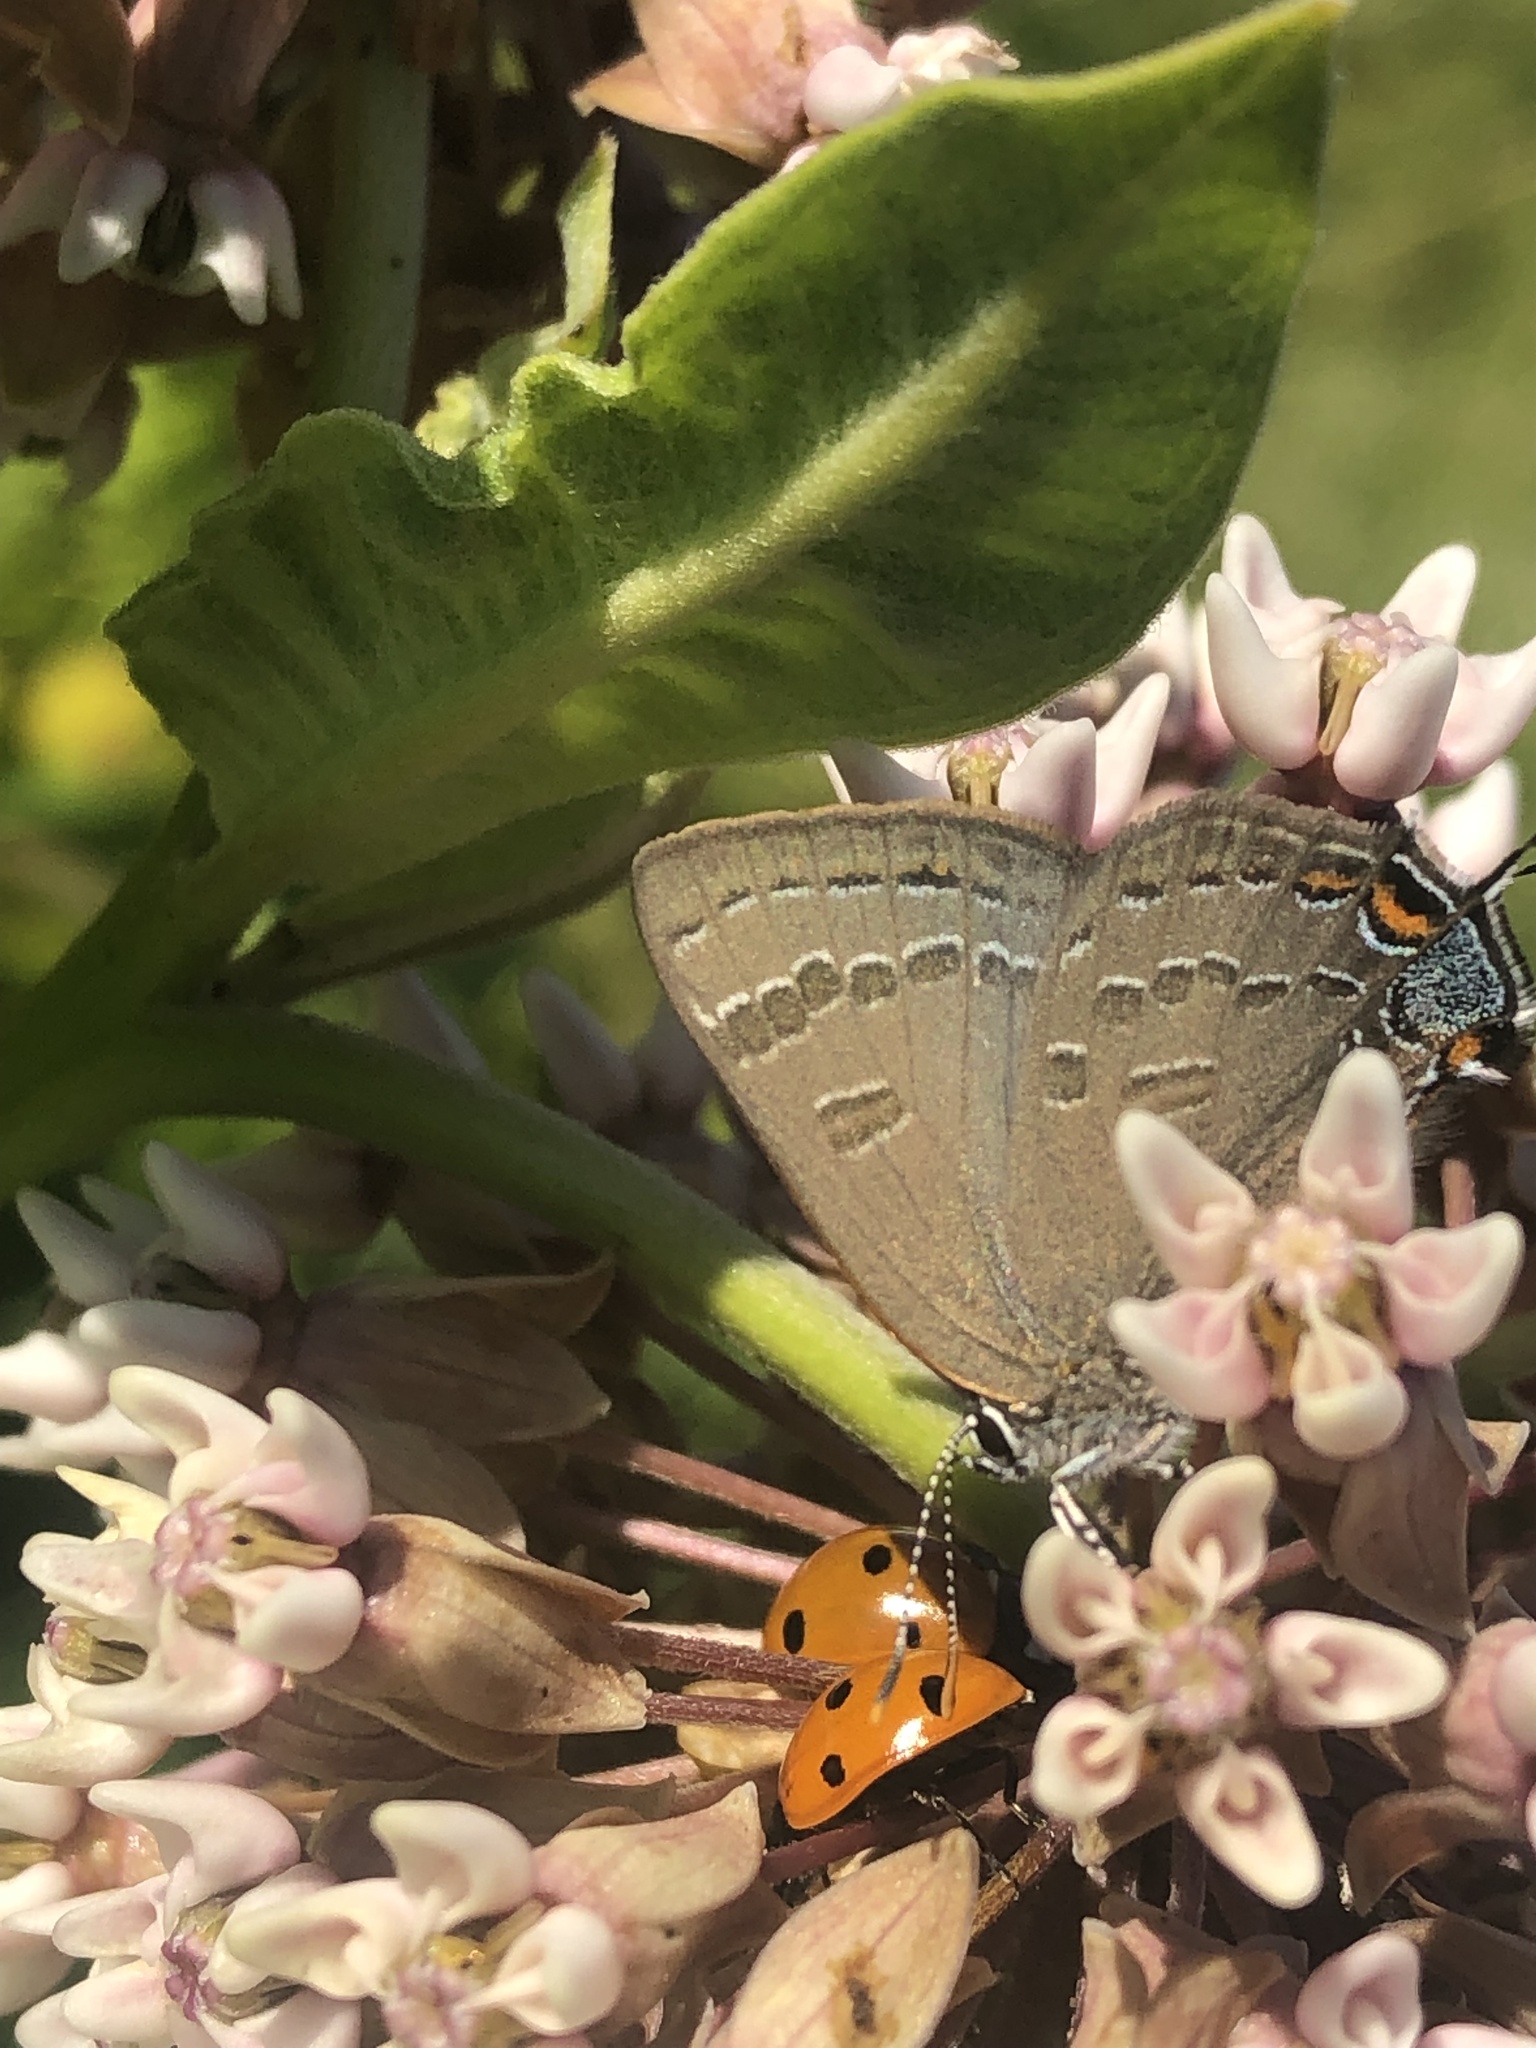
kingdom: Animalia
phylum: Arthropoda
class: Insecta
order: Lepidoptera
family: Lycaenidae
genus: Satyrium
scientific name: Satyrium calanus
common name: Banded hairstreak
